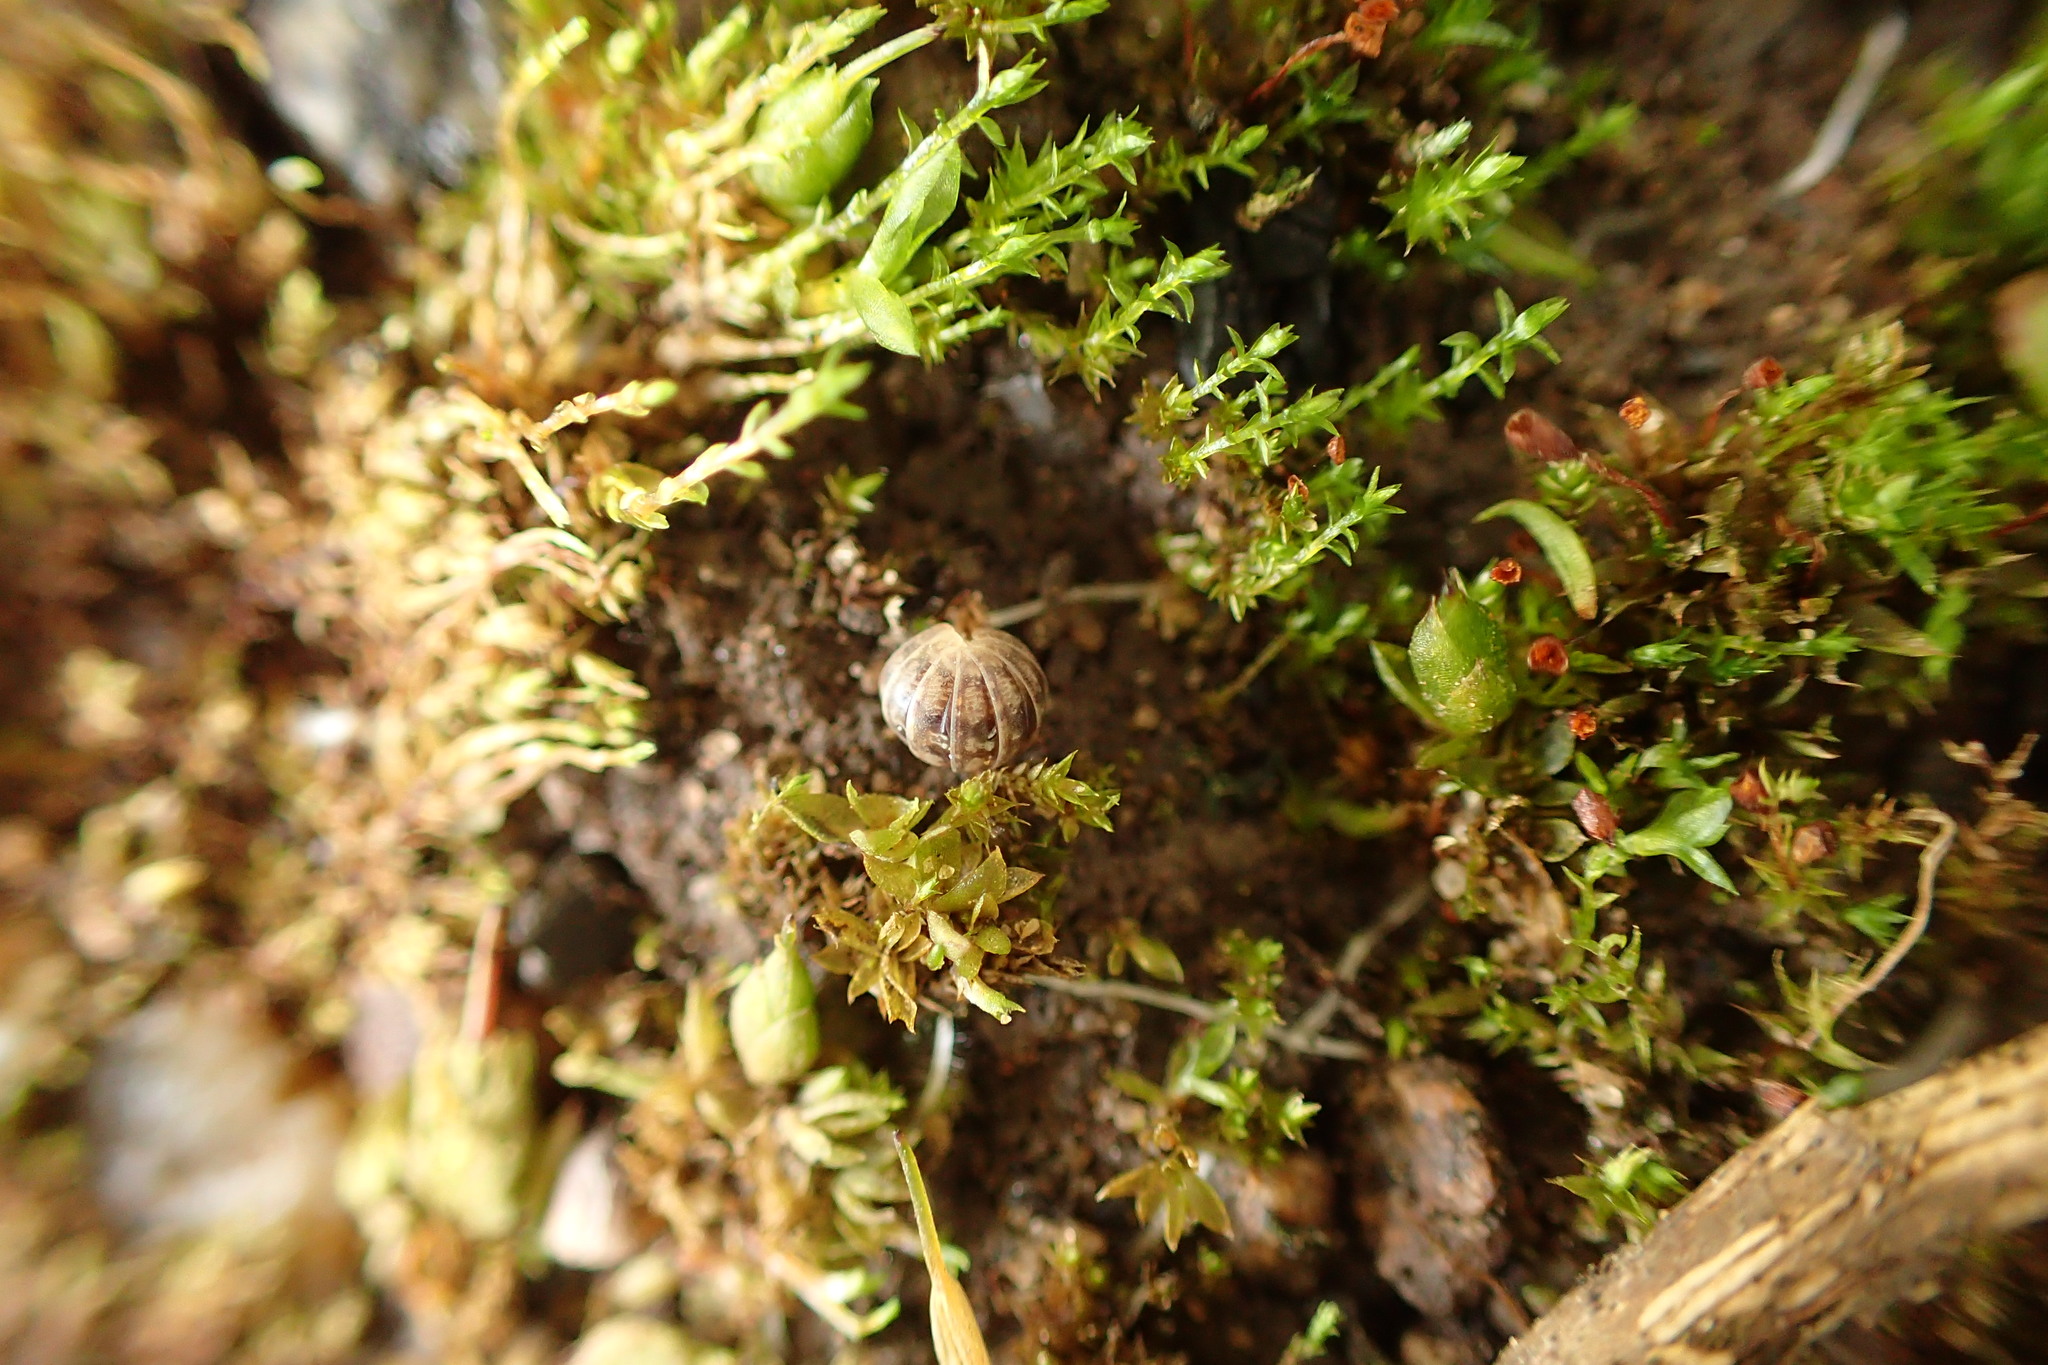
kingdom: Animalia
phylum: Arthropoda
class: Malacostraca
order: Isopoda
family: Armadillidiidae
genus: Armadillidium
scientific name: Armadillidium vulgare
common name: Common pill woodlouse
